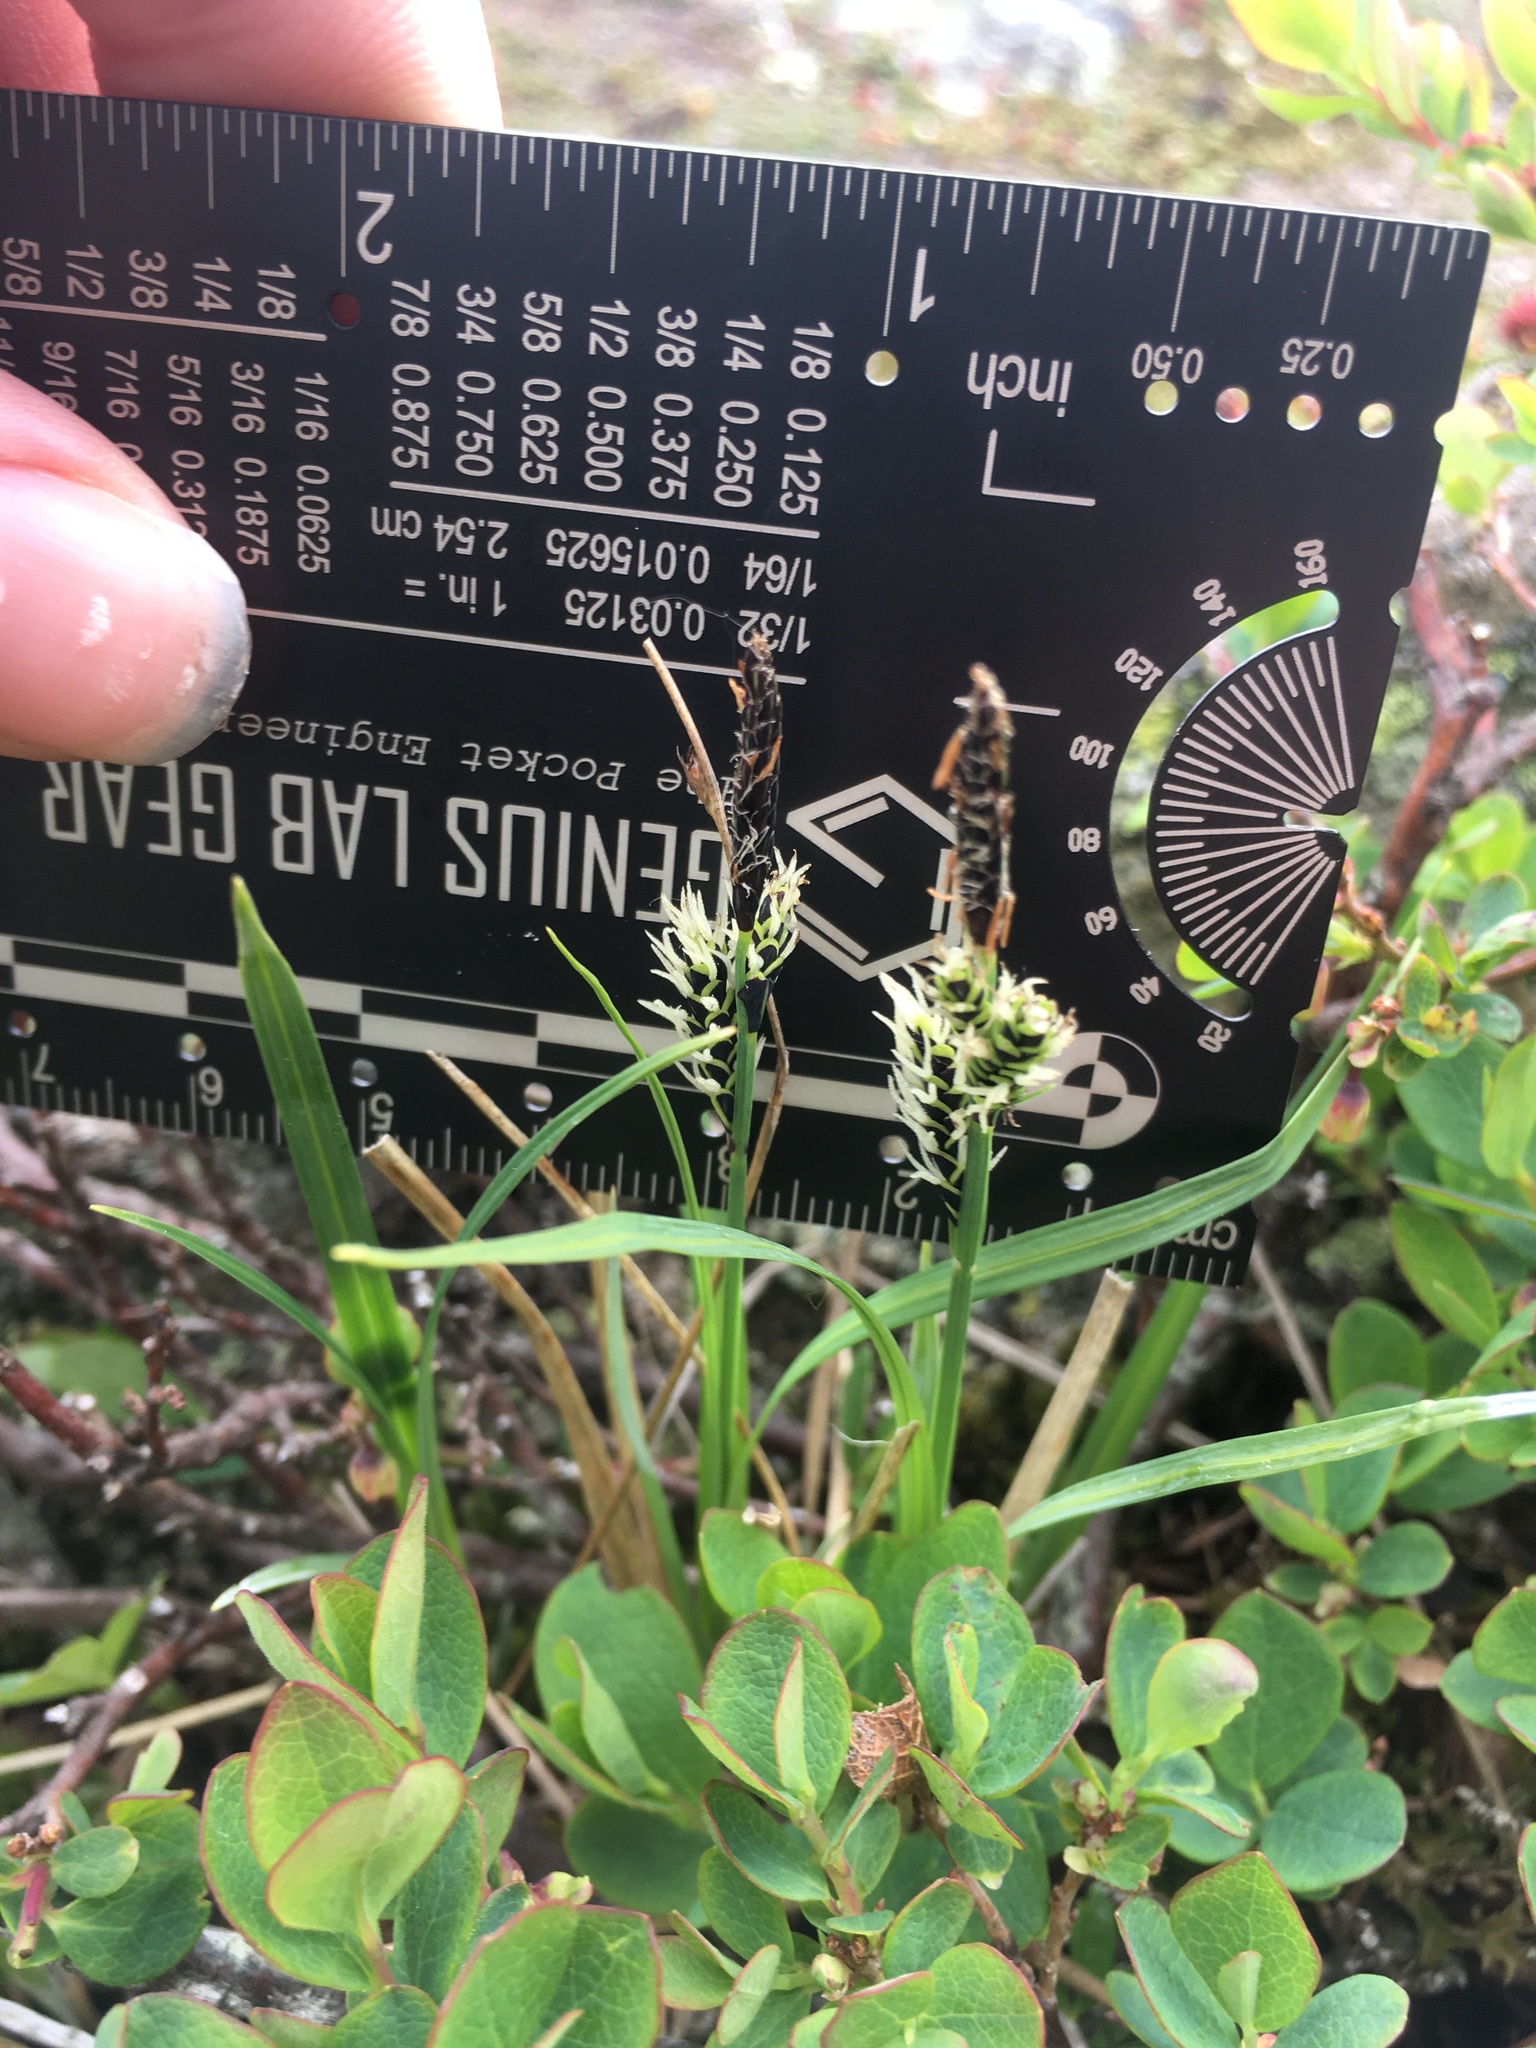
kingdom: Plantae
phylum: Tracheophyta
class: Liliopsida
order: Poales
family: Cyperaceae
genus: Carex
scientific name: Carex bigelowii
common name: Stiff sedge
